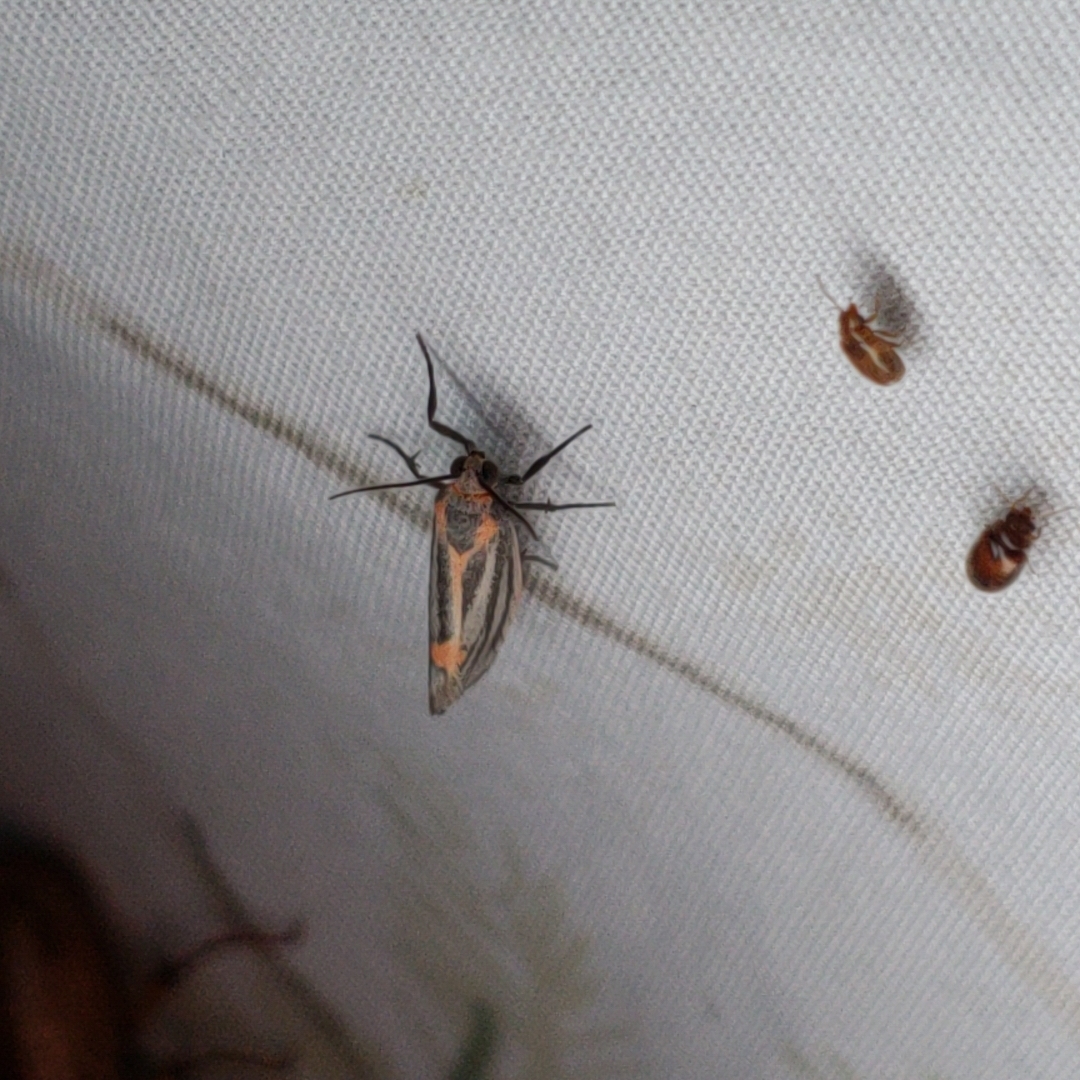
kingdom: Animalia
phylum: Arthropoda
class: Insecta
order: Lepidoptera
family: Erebidae
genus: Cisthene
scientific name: Cisthene striata
